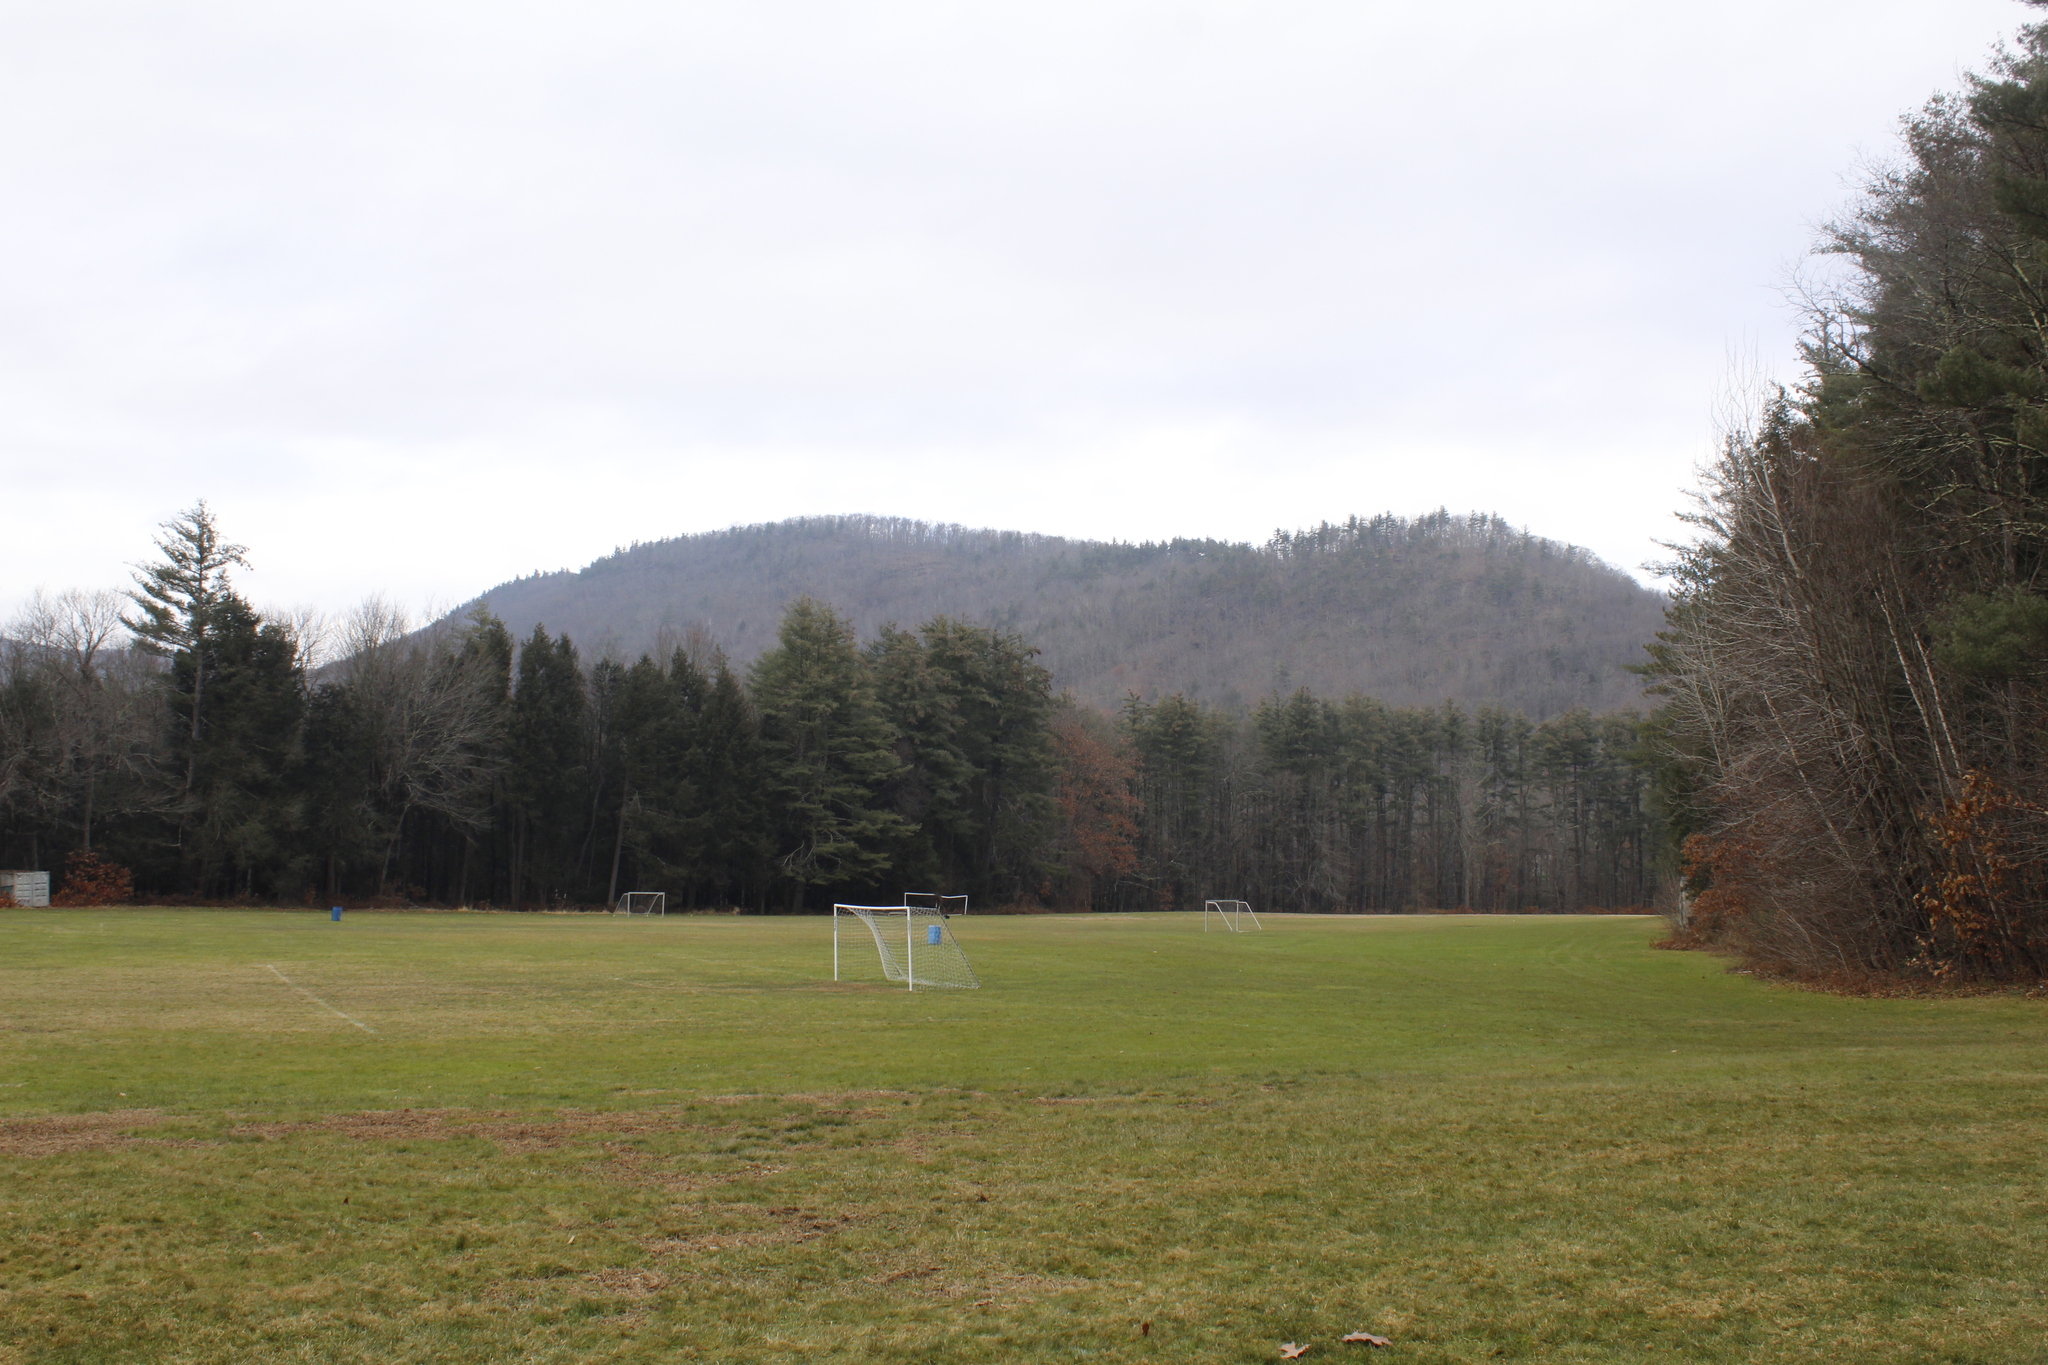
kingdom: Plantae
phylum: Tracheophyta
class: Pinopsida
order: Pinales
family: Pinaceae
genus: Pinus
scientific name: Pinus strobus
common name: Weymouth pine
